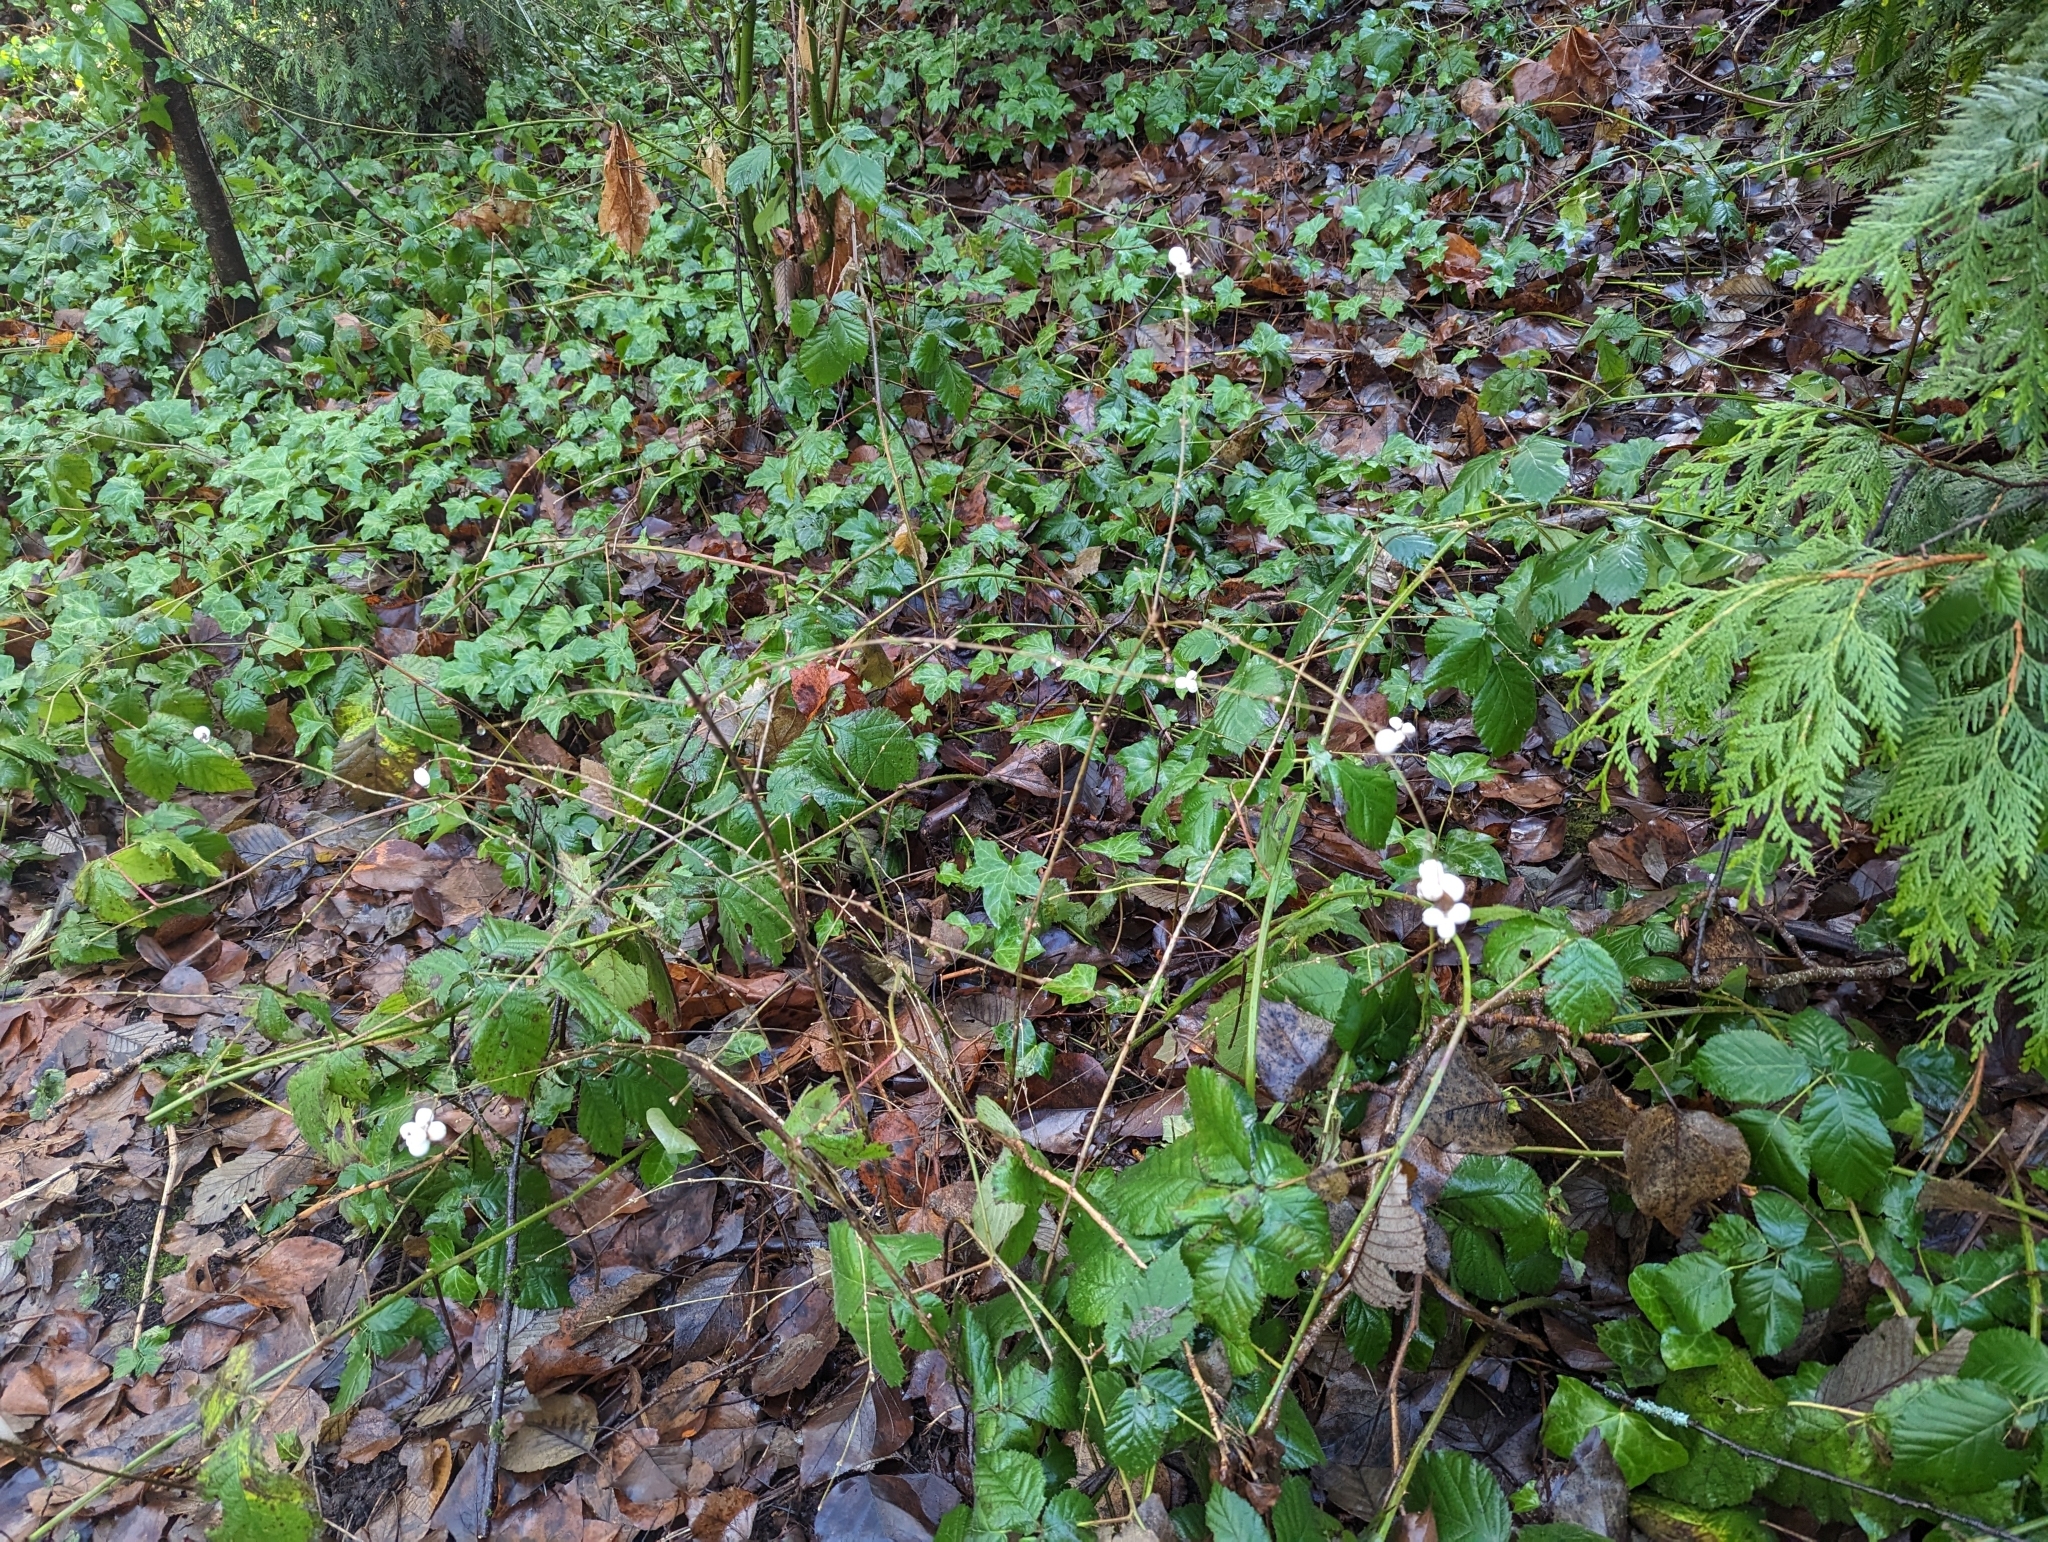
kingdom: Plantae
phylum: Tracheophyta
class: Magnoliopsida
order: Dipsacales
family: Caprifoliaceae
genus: Symphoricarpos
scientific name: Symphoricarpos albus
